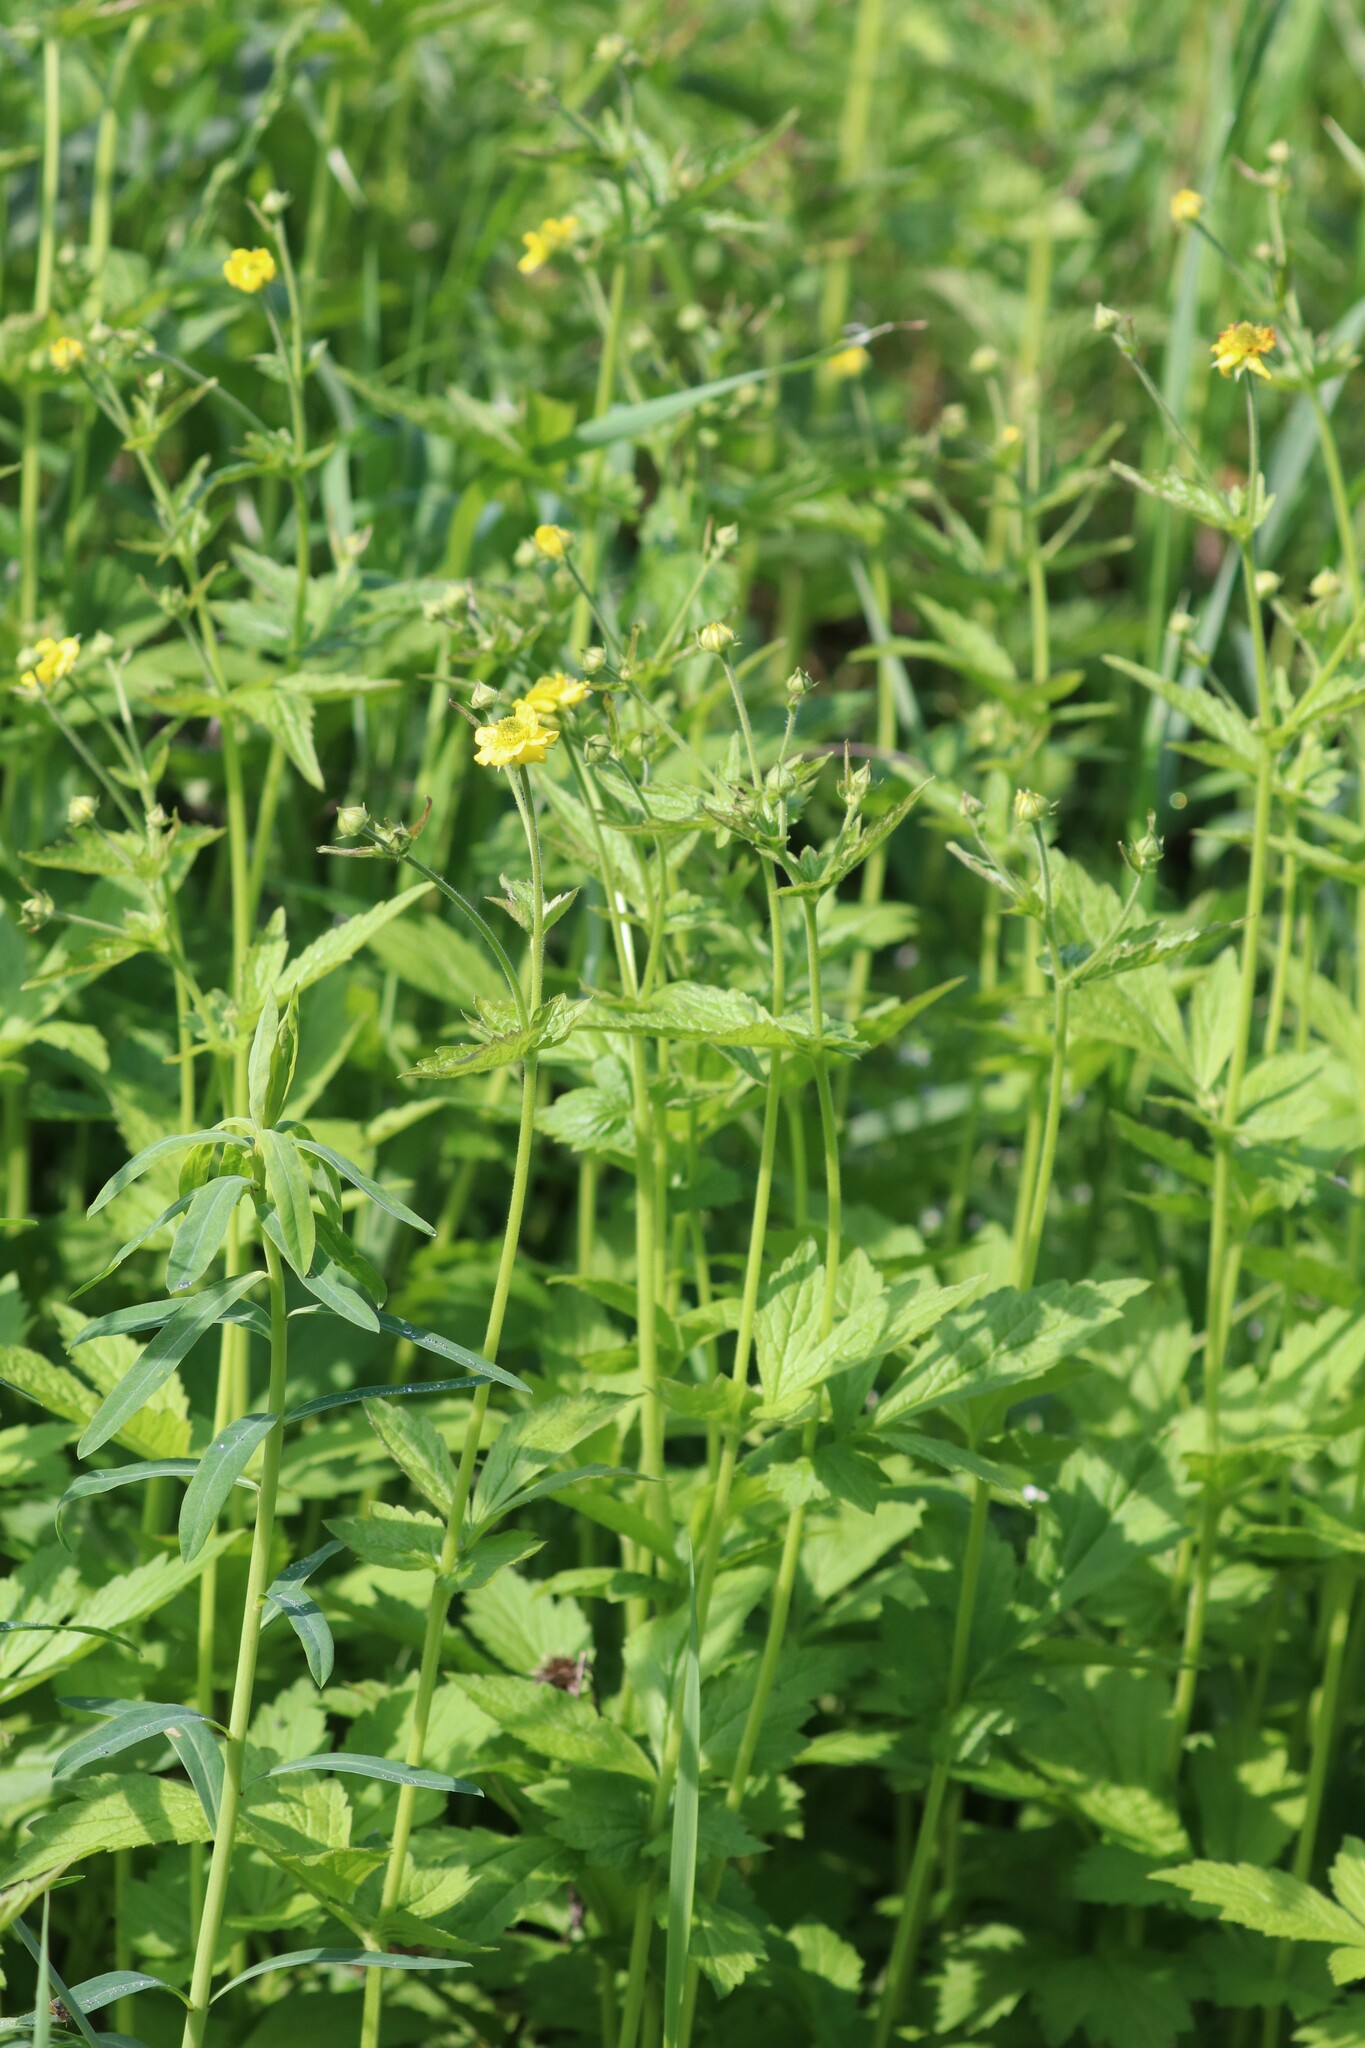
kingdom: Plantae
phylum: Tracheophyta
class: Magnoliopsida
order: Rosales
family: Rosaceae
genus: Geum
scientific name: Geum urbanum
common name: Wood avens
